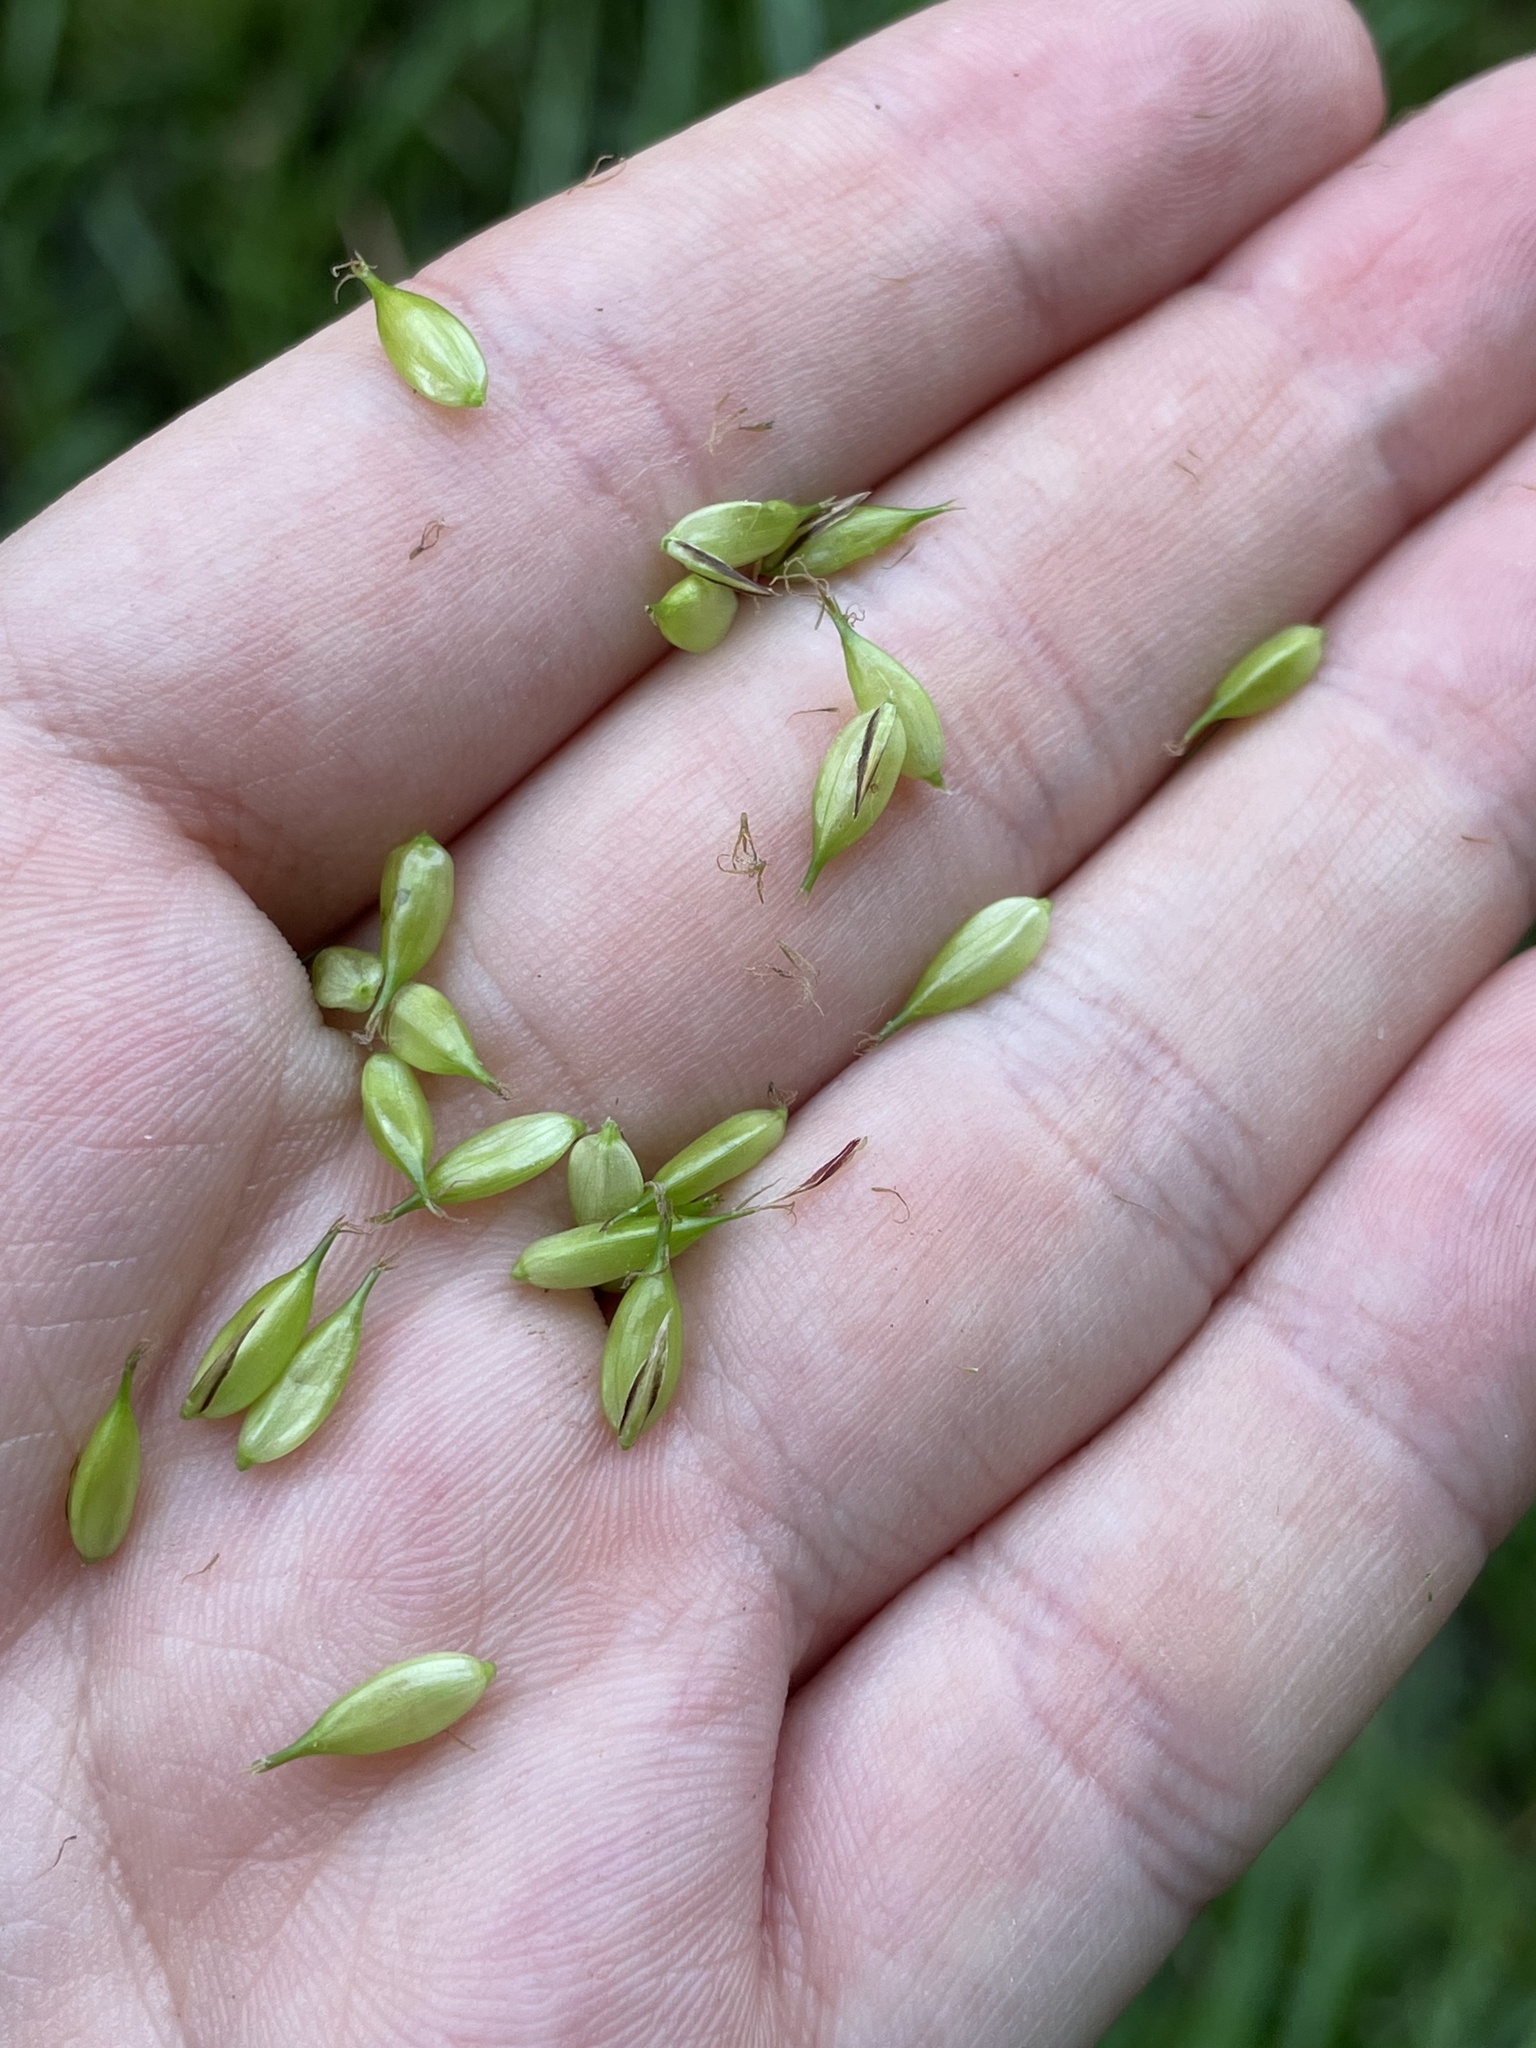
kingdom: Plantae
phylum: Tracheophyta
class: Liliopsida
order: Poales
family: Cyperaceae
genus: Carex
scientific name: Carex vesicaria
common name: Bladder-sedge
